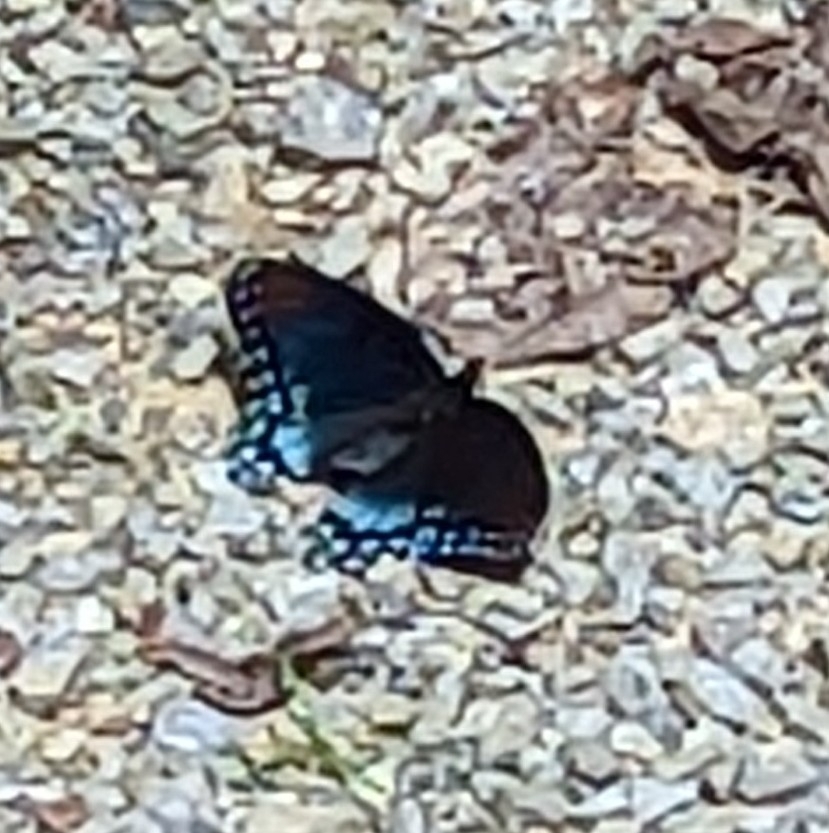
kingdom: Animalia
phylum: Arthropoda
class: Insecta
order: Lepidoptera
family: Nymphalidae
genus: Limenitis
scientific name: Limenitis astyanax
